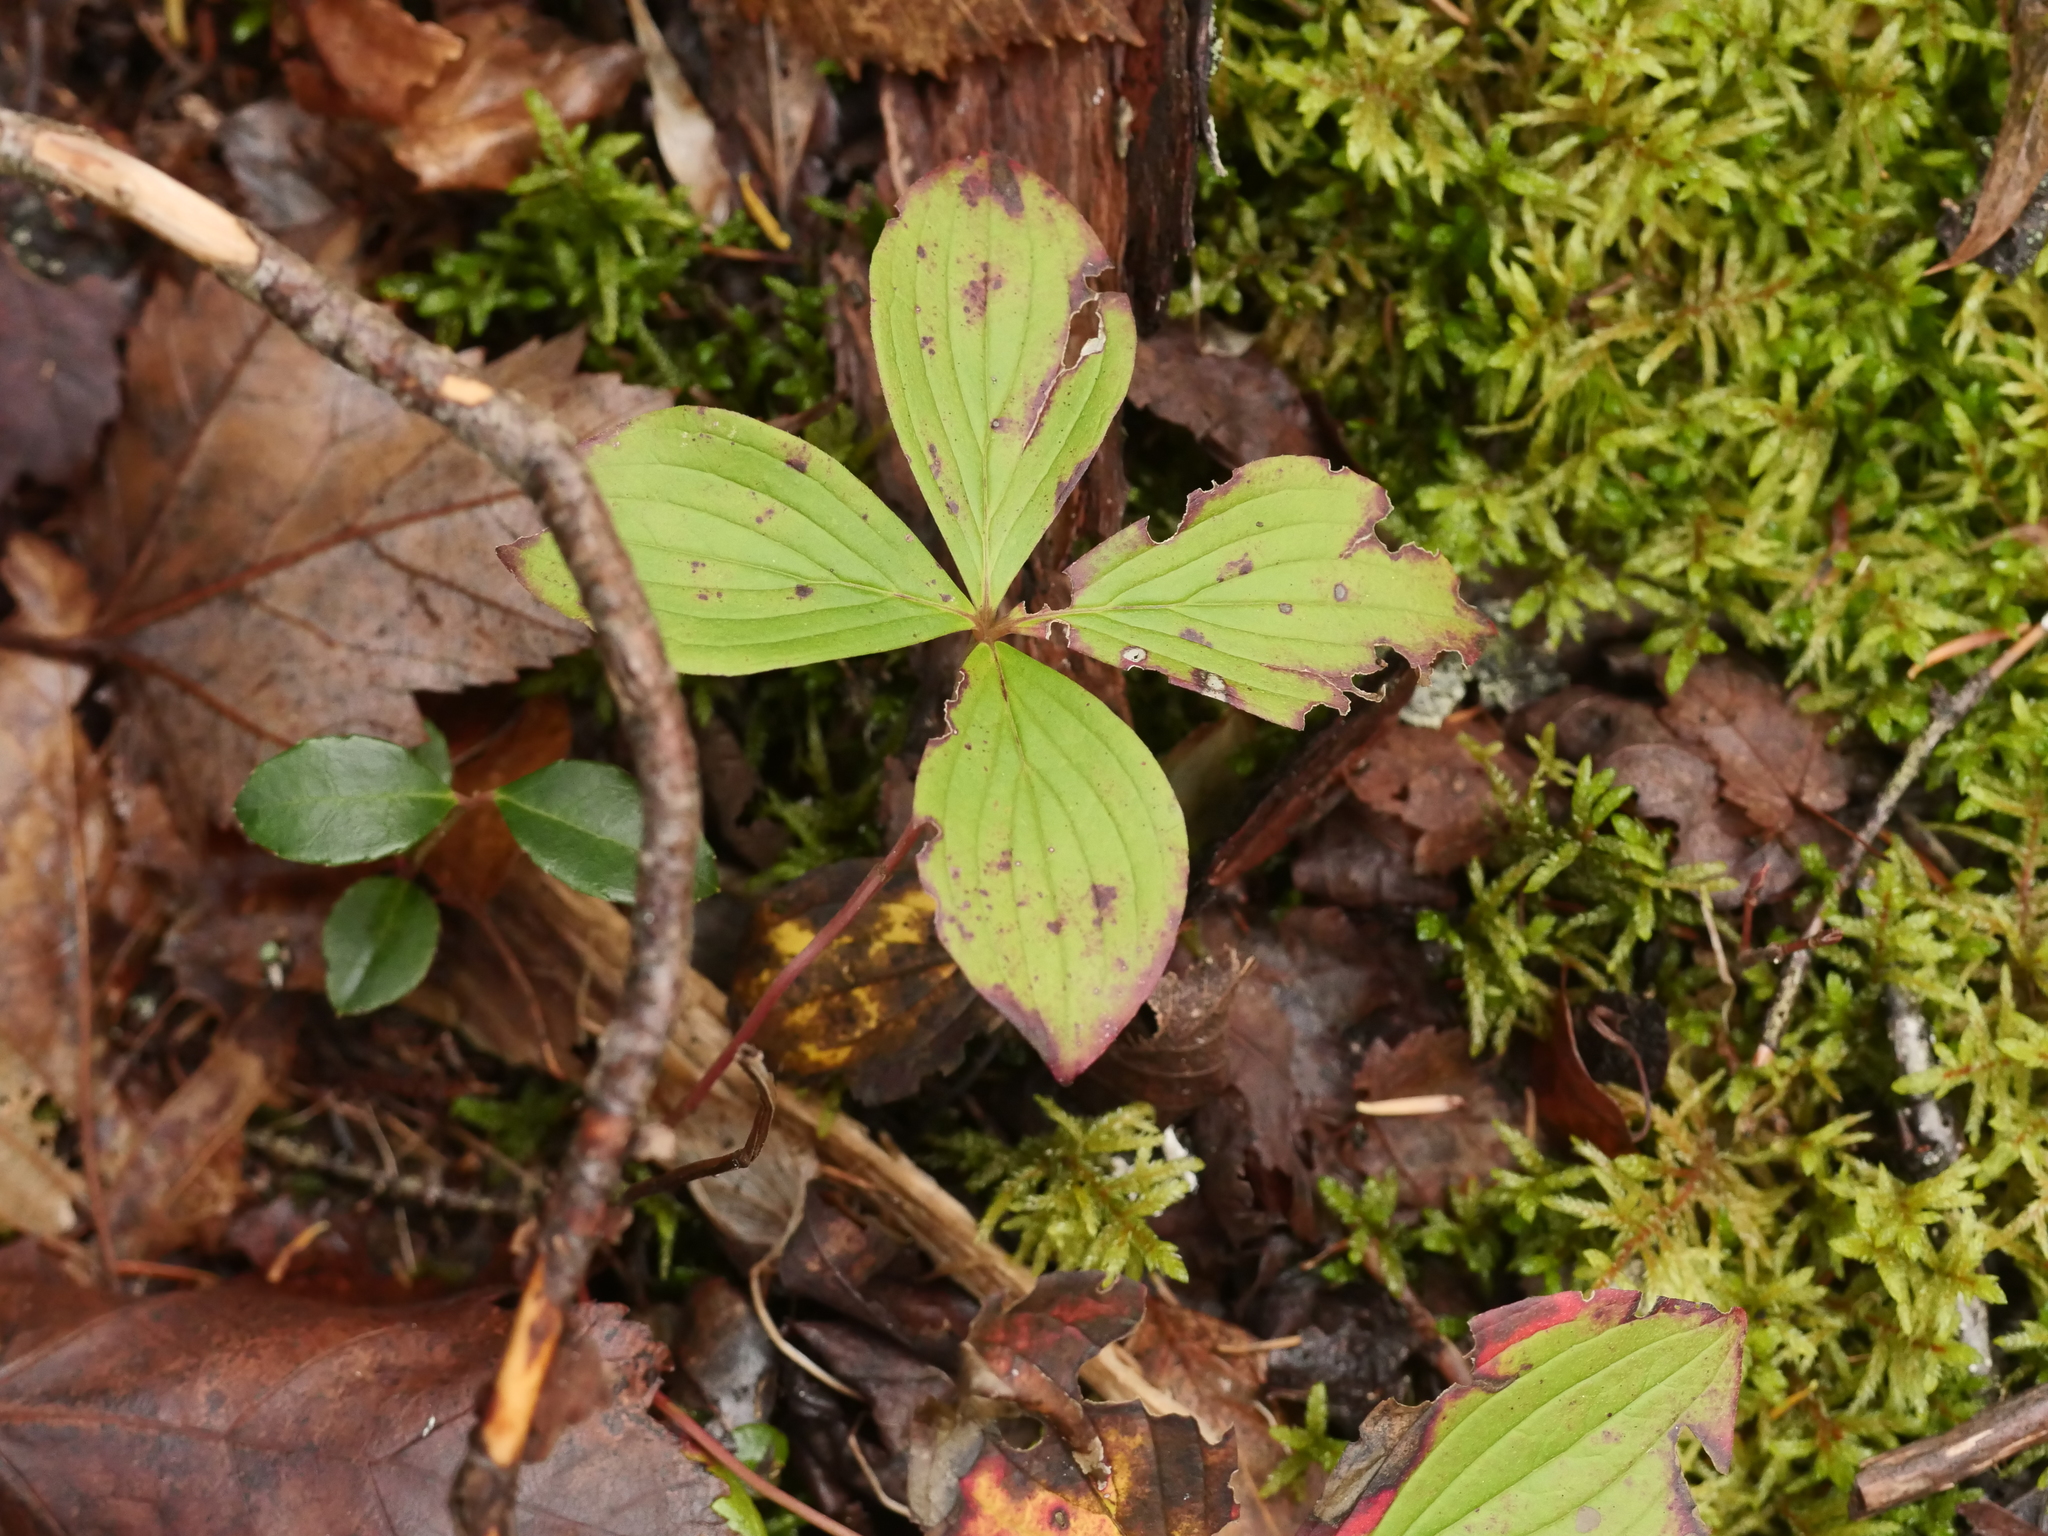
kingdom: Plantae
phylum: Tracheophyta
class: Magnoliopsida
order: Cornales
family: Cornaceae
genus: Cornus
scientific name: Cornus canadensis
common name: Creeping dogwood
